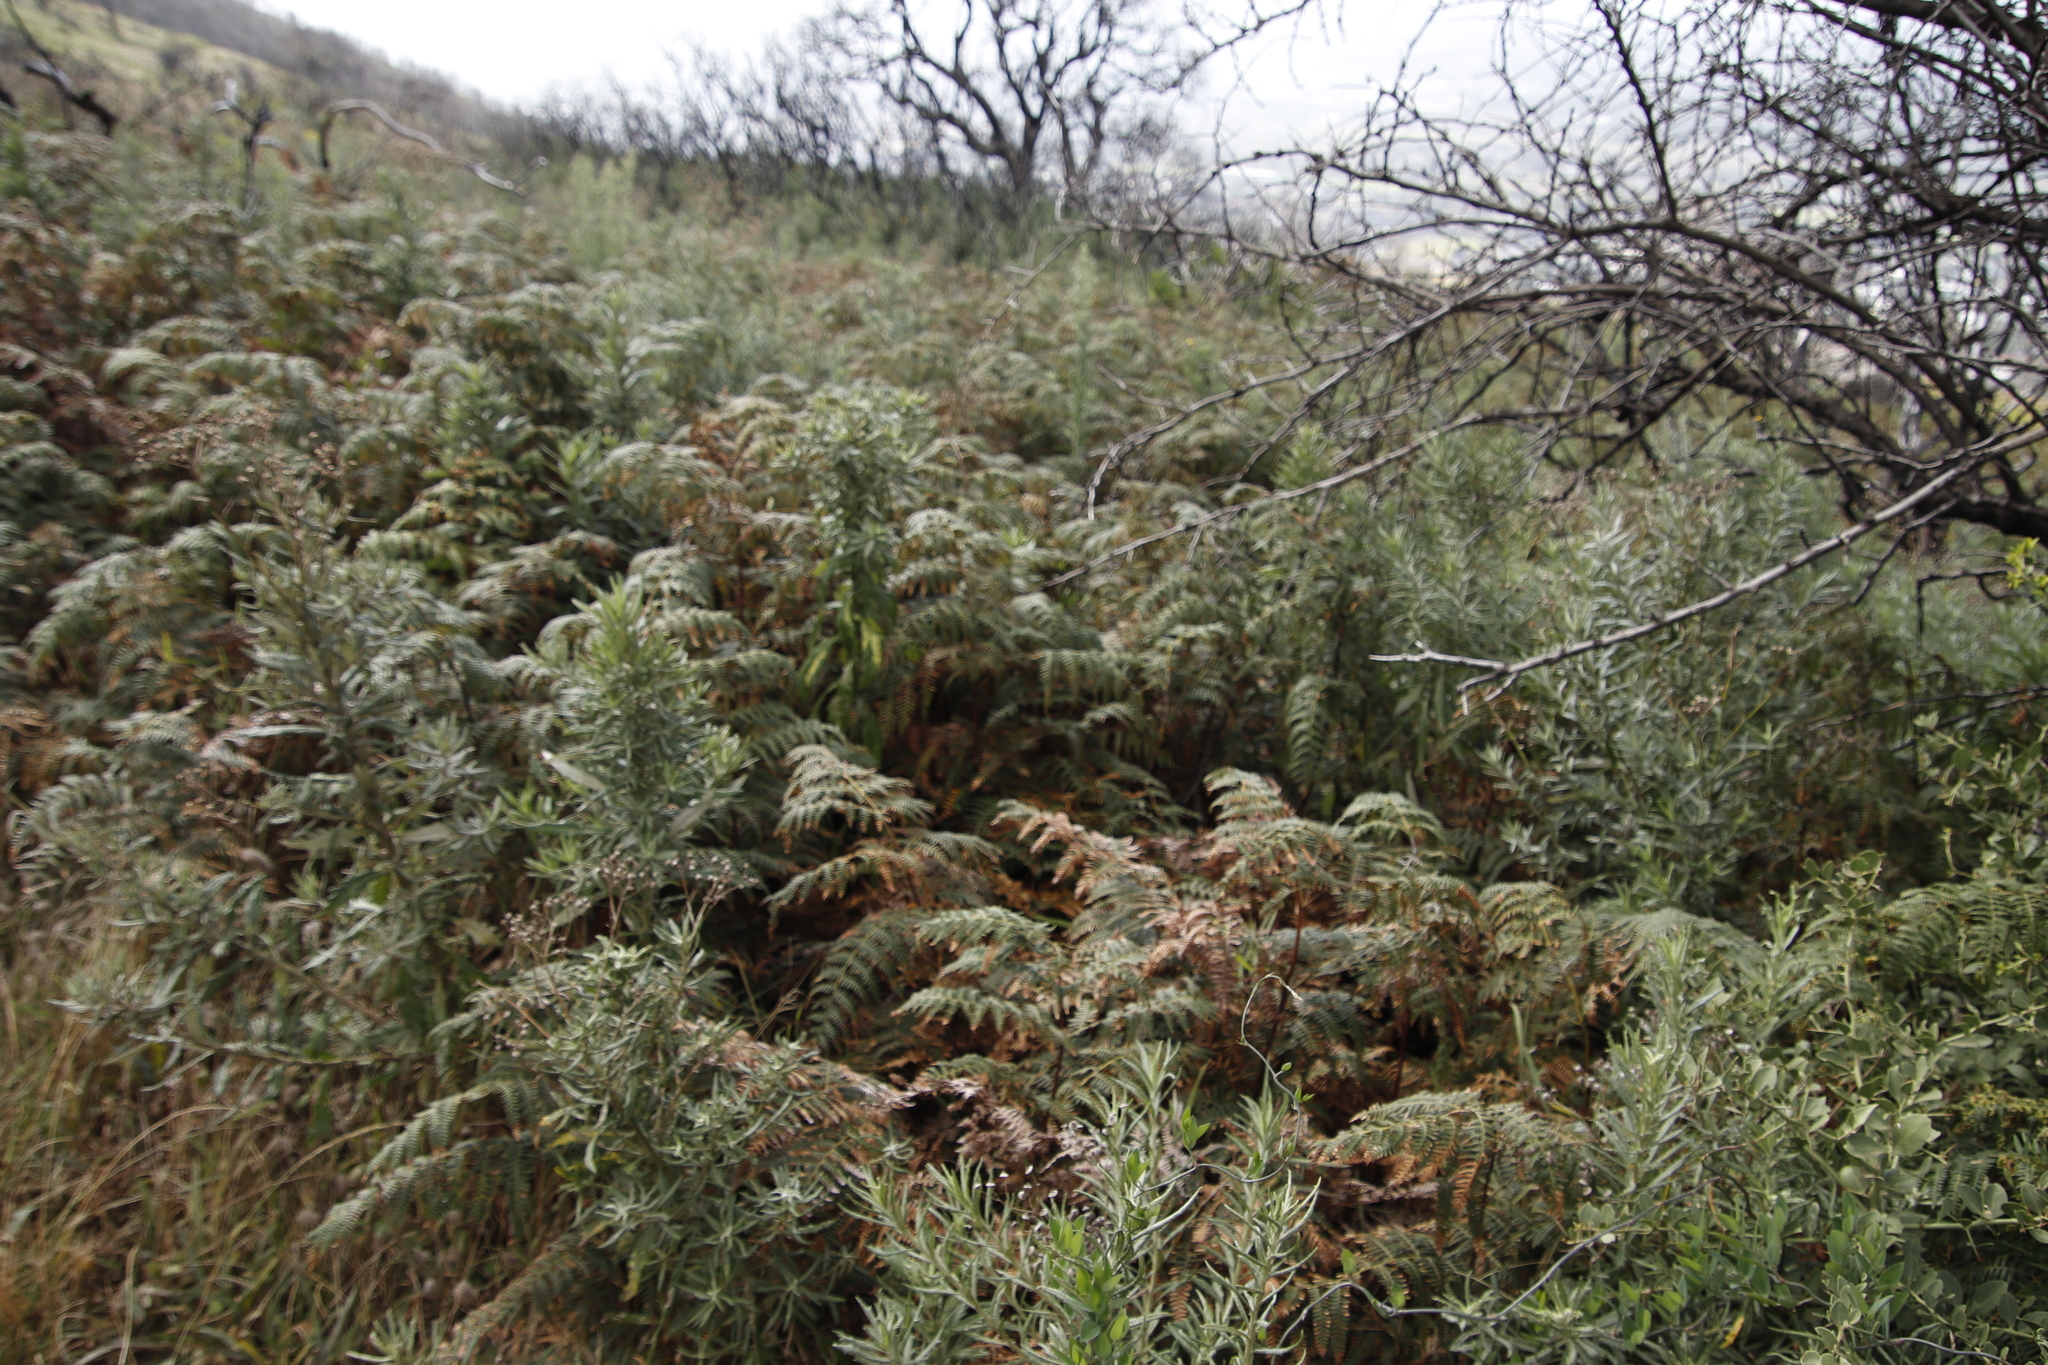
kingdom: Plantae
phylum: Tracheophyta
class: Polypodiopsida
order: Polypodiales
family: Dennstaedtiaceae
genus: Pteridium
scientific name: Pteridium aquilinum
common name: Bracken
